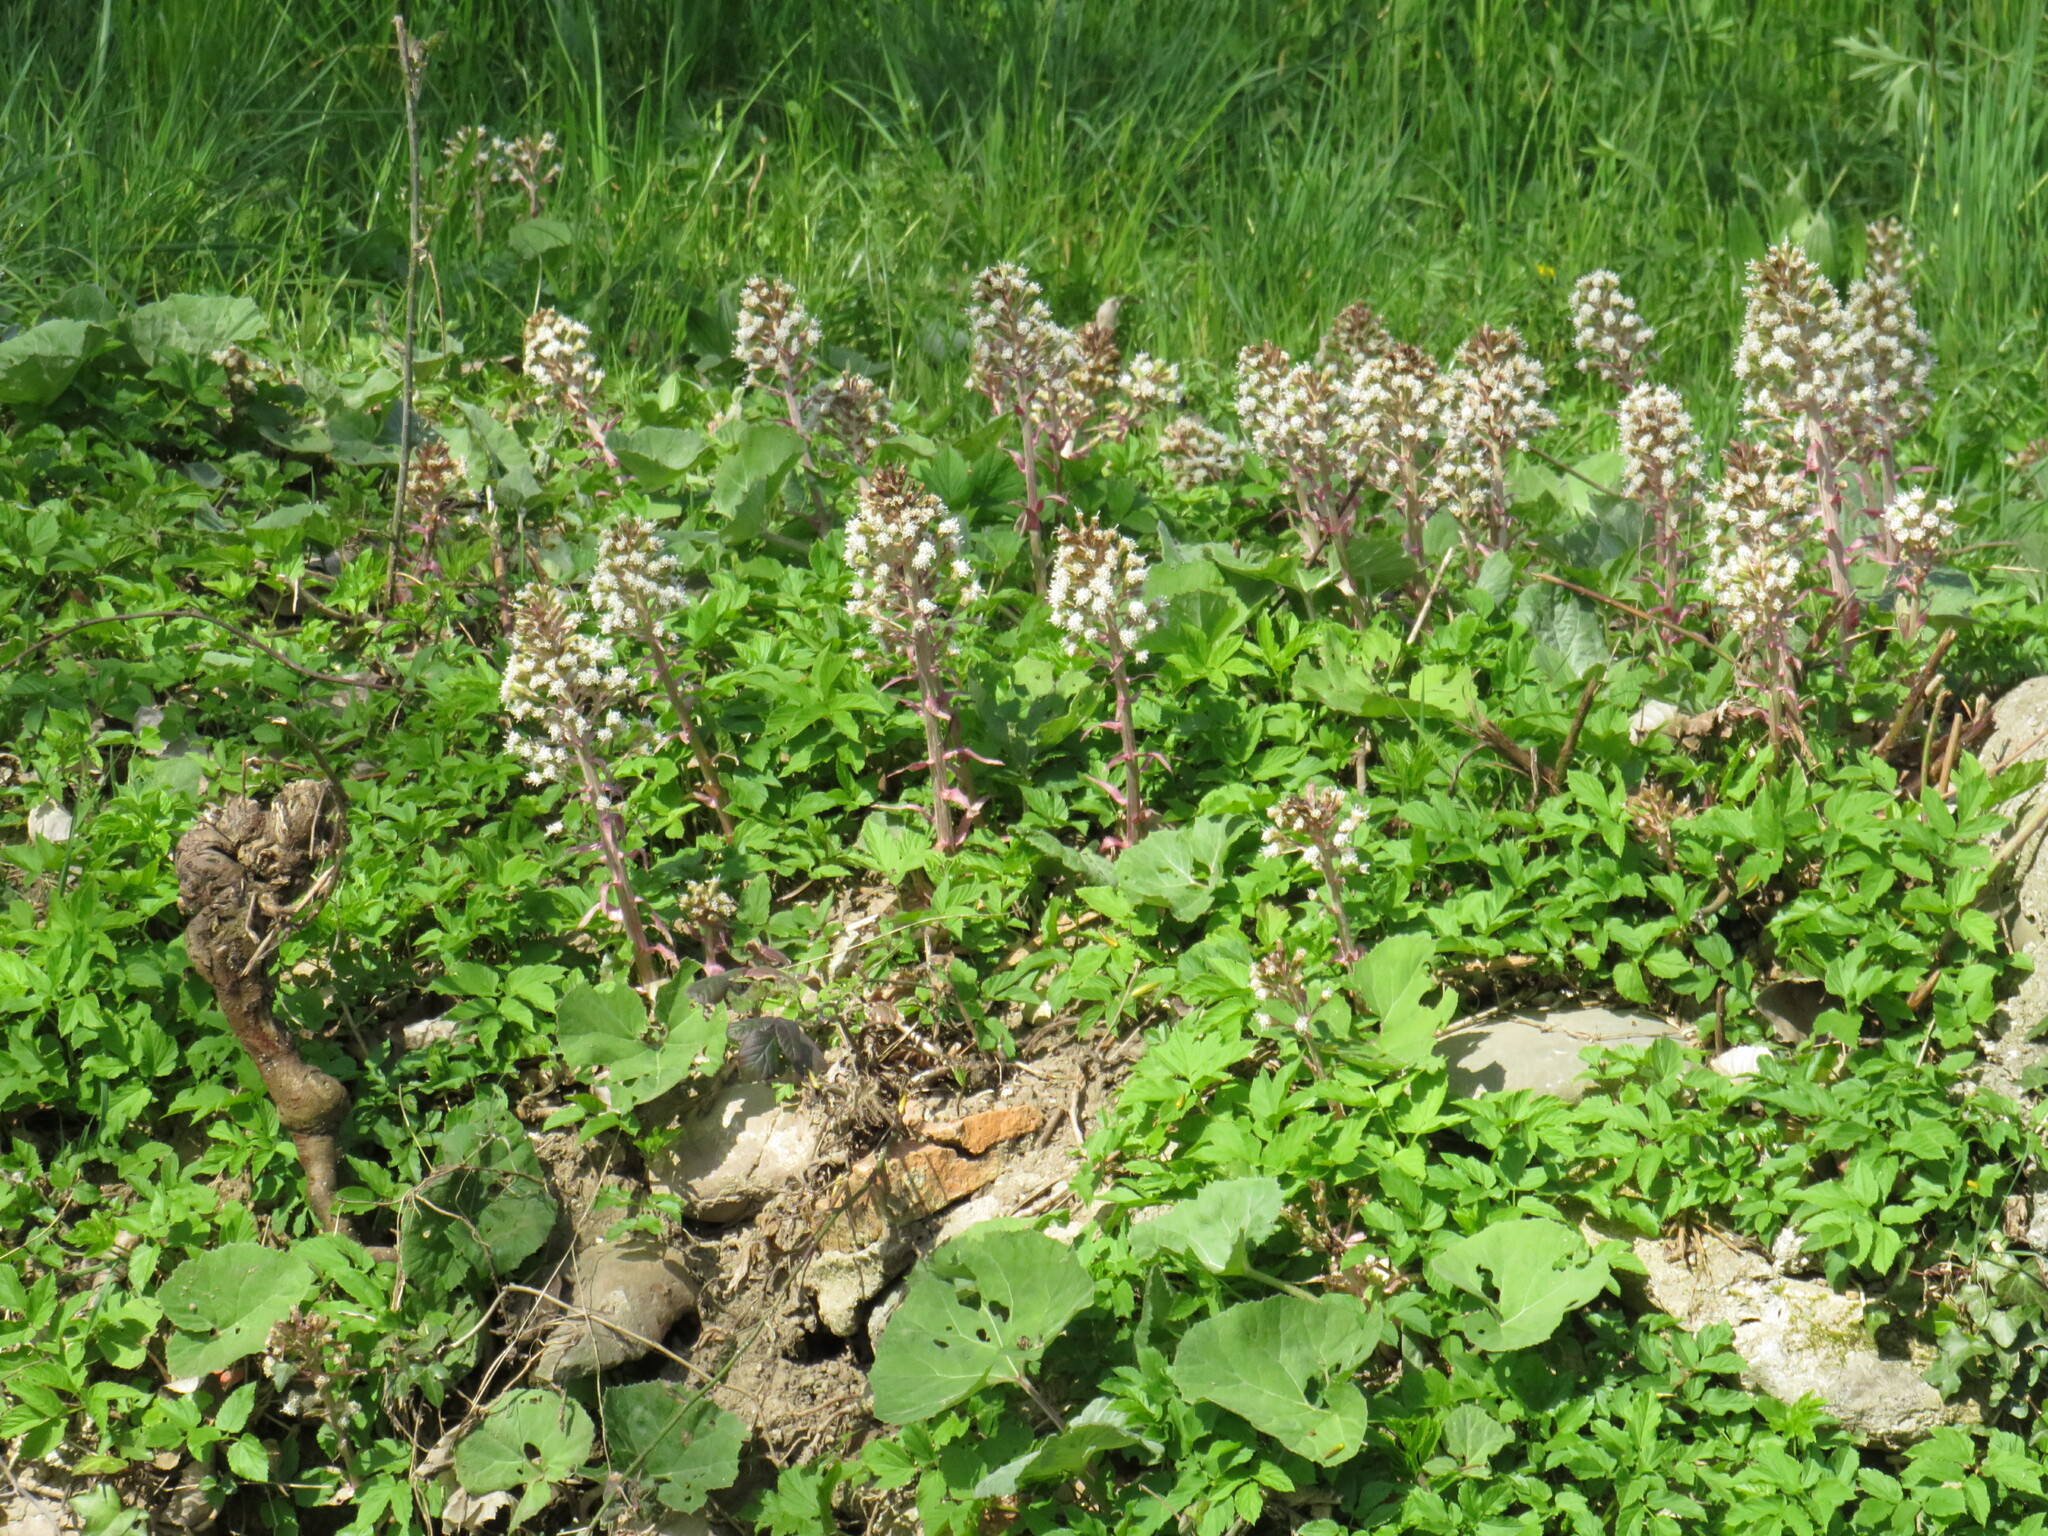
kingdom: Plantae
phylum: Tracheophyta
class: Magnoliopsida
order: Asterales
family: Asteraceae
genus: Petasites
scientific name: Petasites hybridus
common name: Butterbur
